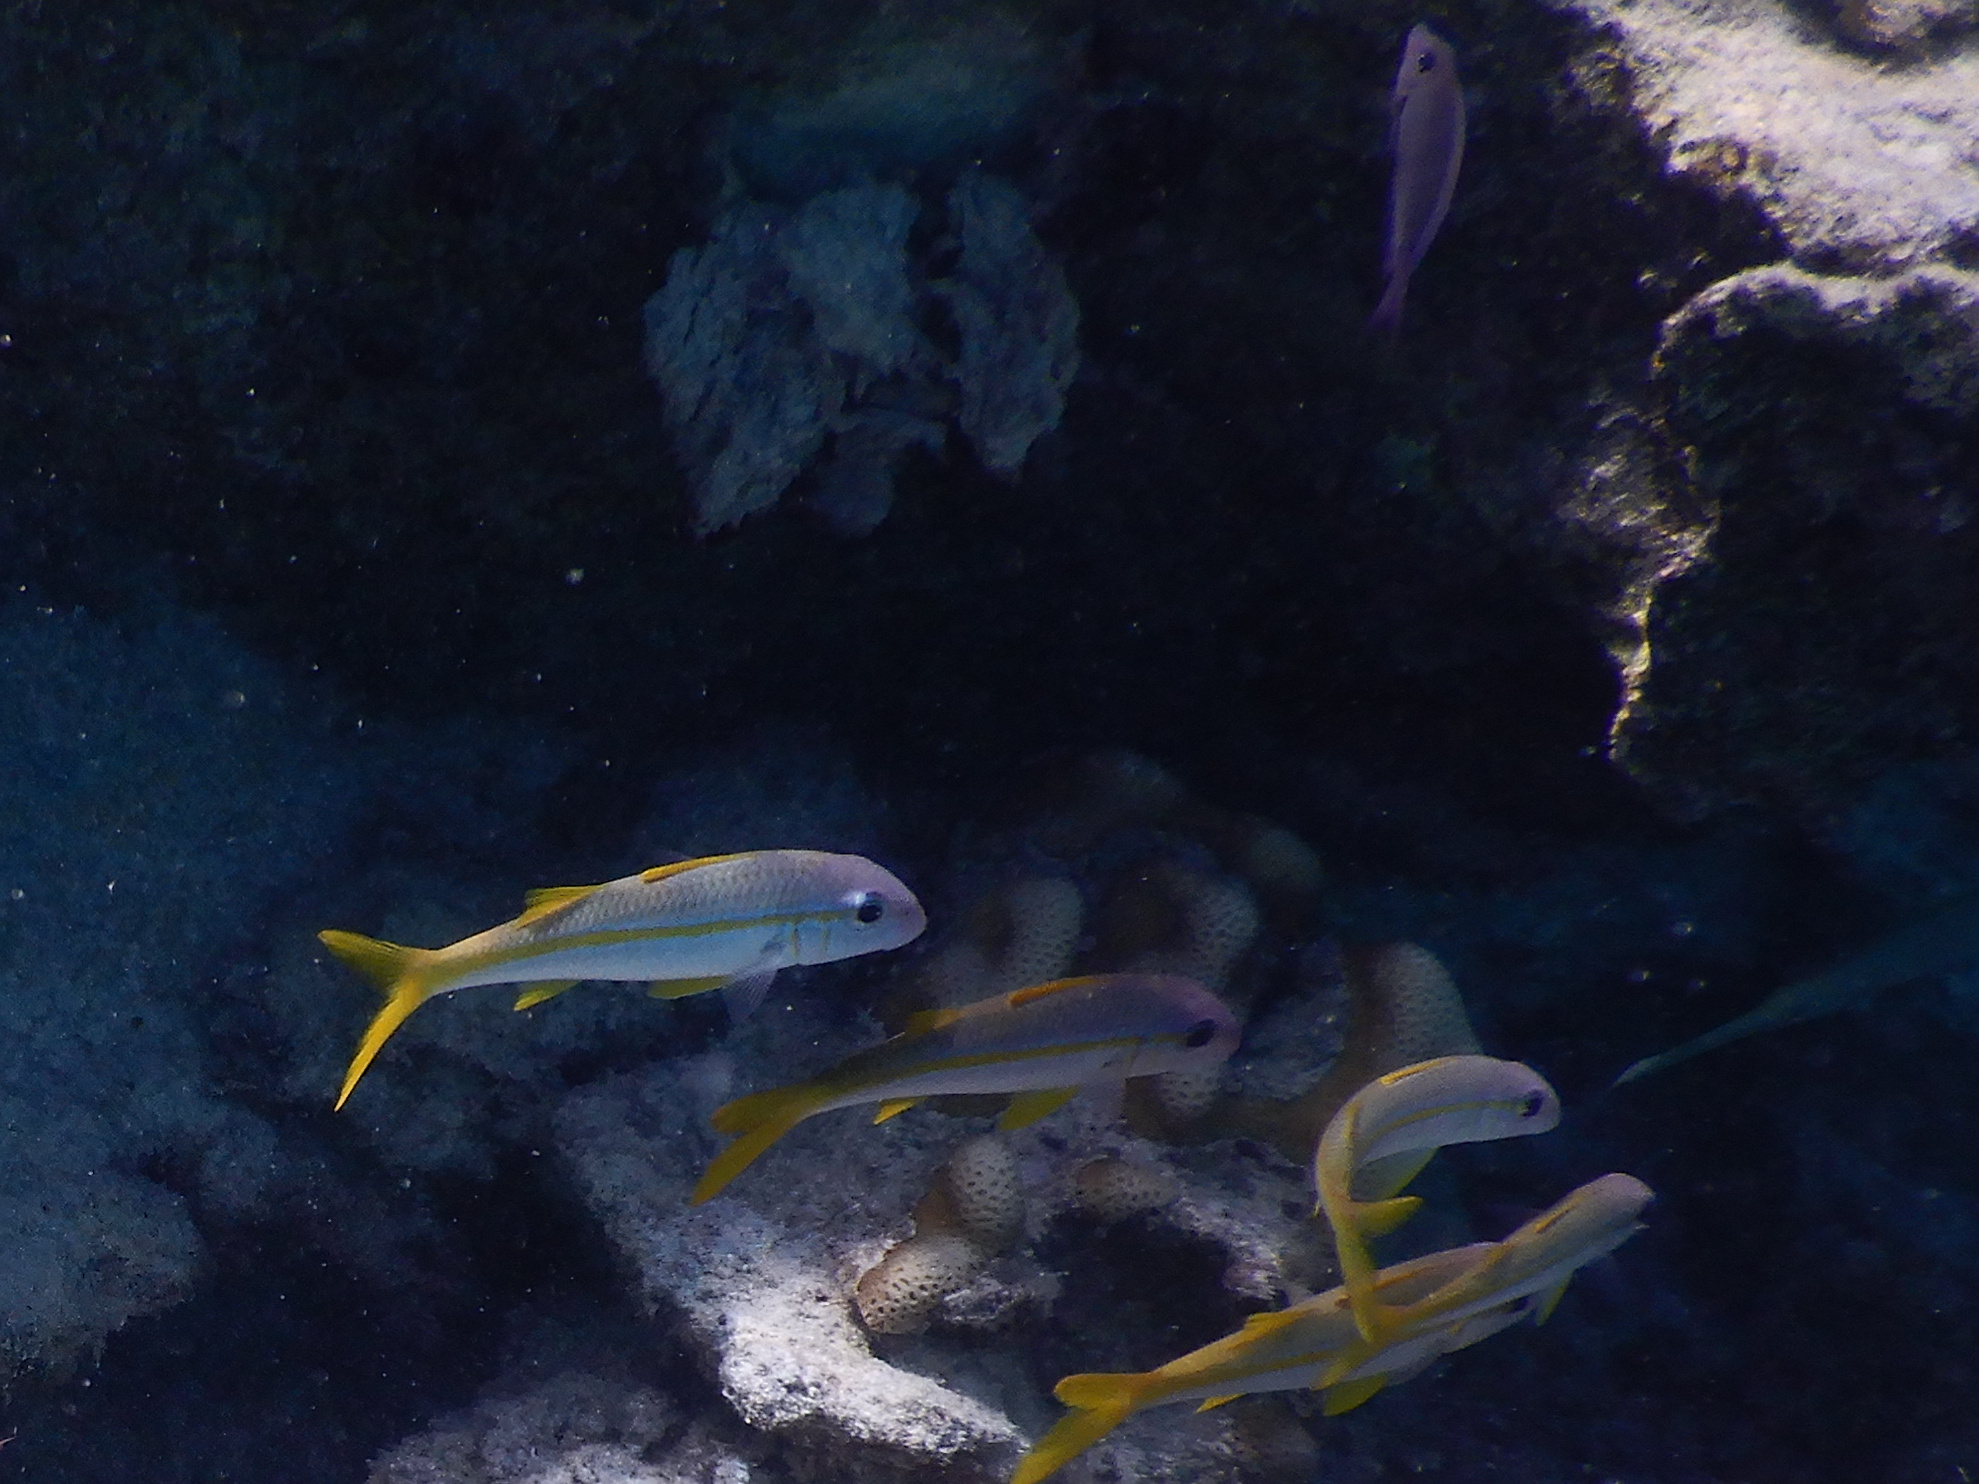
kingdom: Animalia
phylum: Chordata
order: Perciformes
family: Mullidae
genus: Mulloidichthys
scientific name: Mulloidichthys vanicolensis
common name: Yellowfin goatfish
